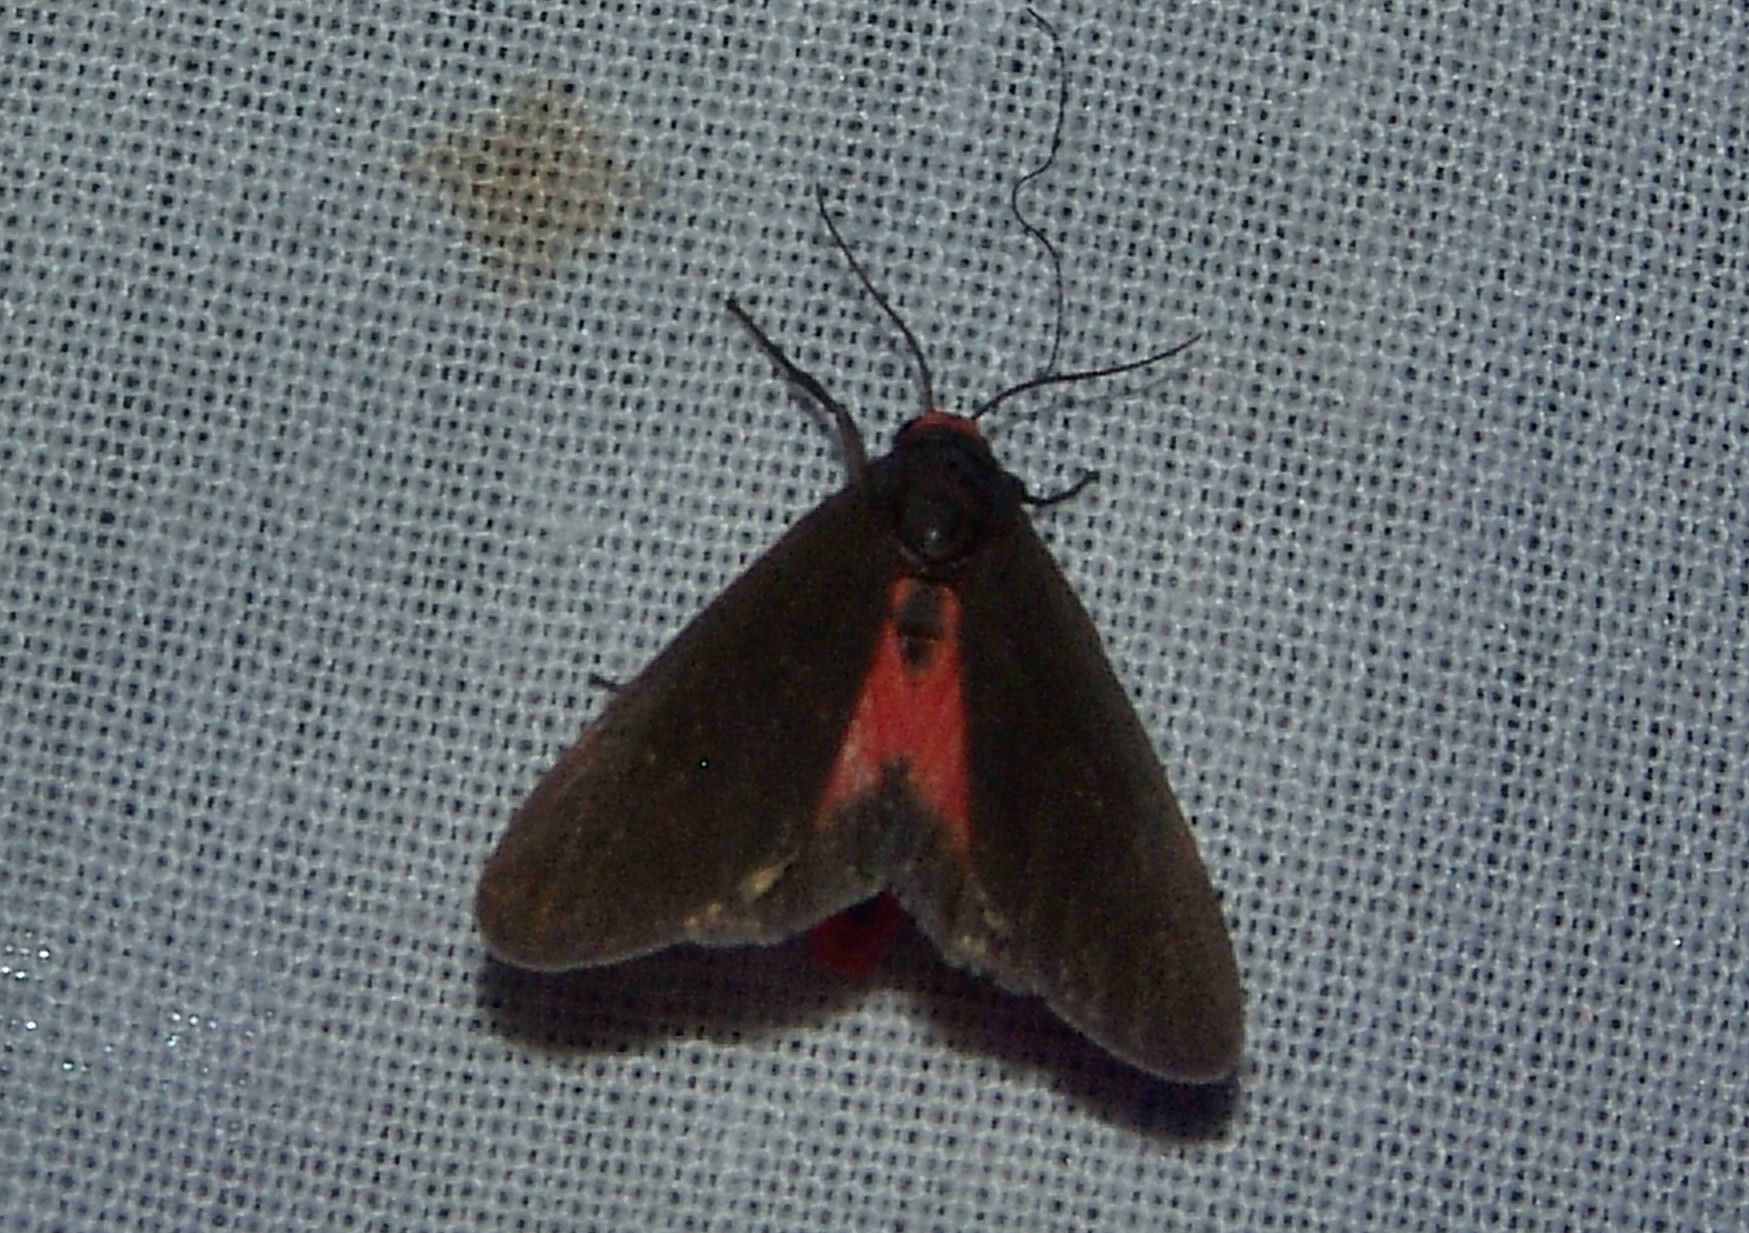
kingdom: Animalia
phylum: Arthropoda
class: Insecta
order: Lepidoptera
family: Erebidae
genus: Virbia
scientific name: Virbia laeta
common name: Joyful holomelina moth
